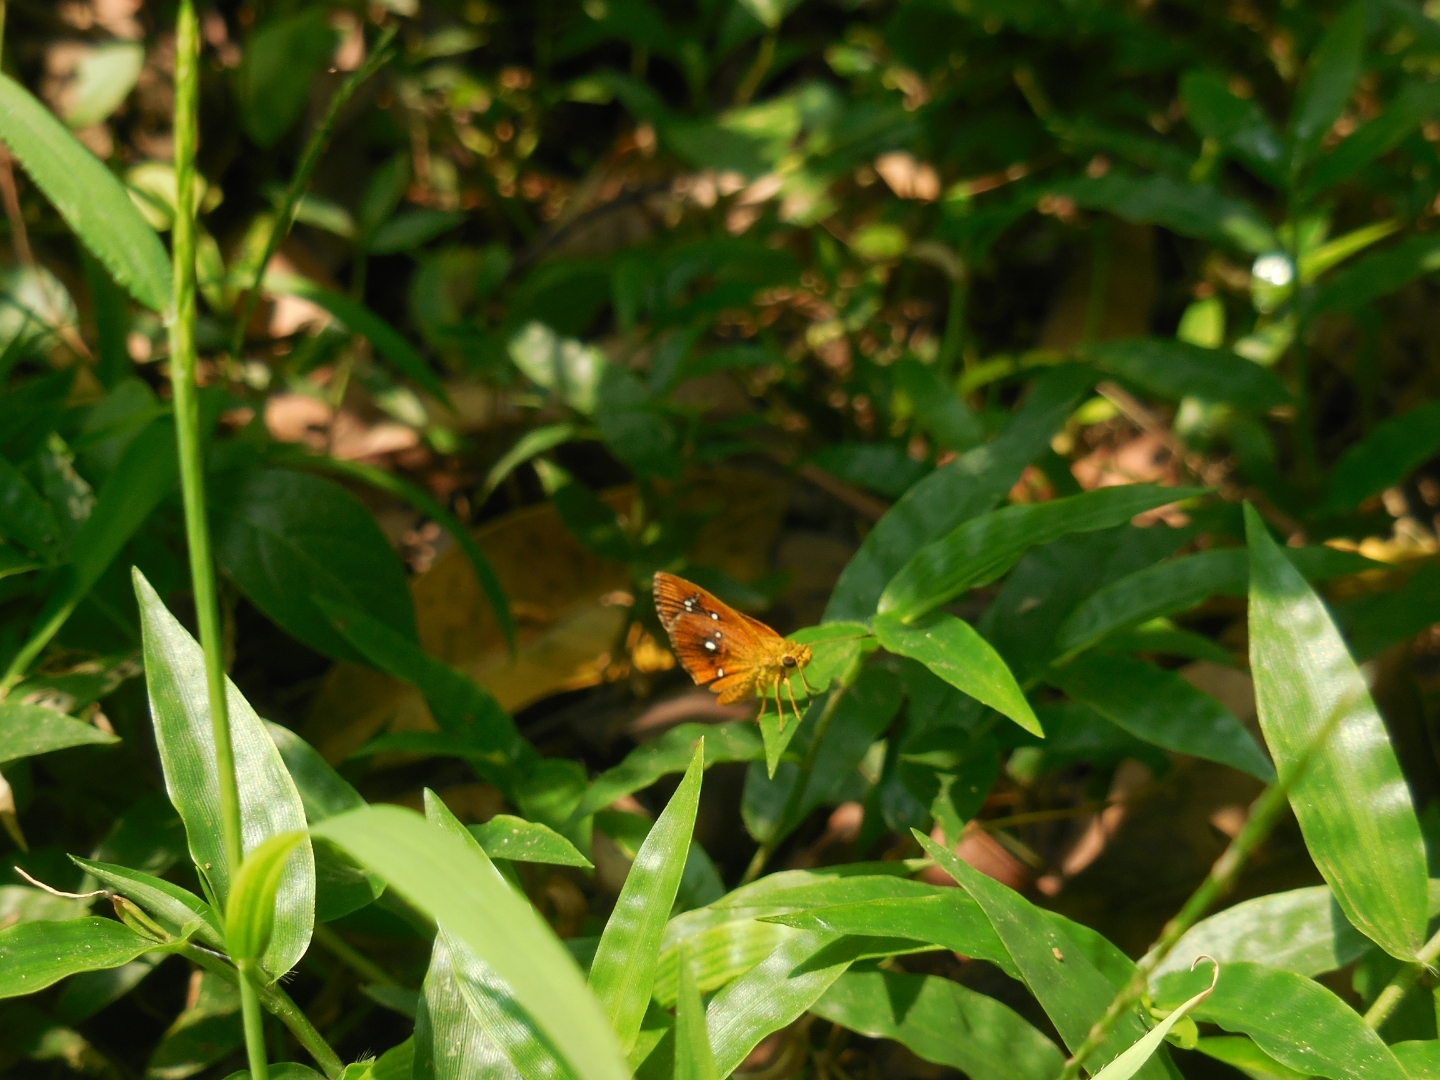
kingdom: Animalia
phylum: Arthropoda
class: Insecta
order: Lepidoptera
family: Hesperiidae
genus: Iambrix
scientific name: Iambrix salsala
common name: Chestnut bob
